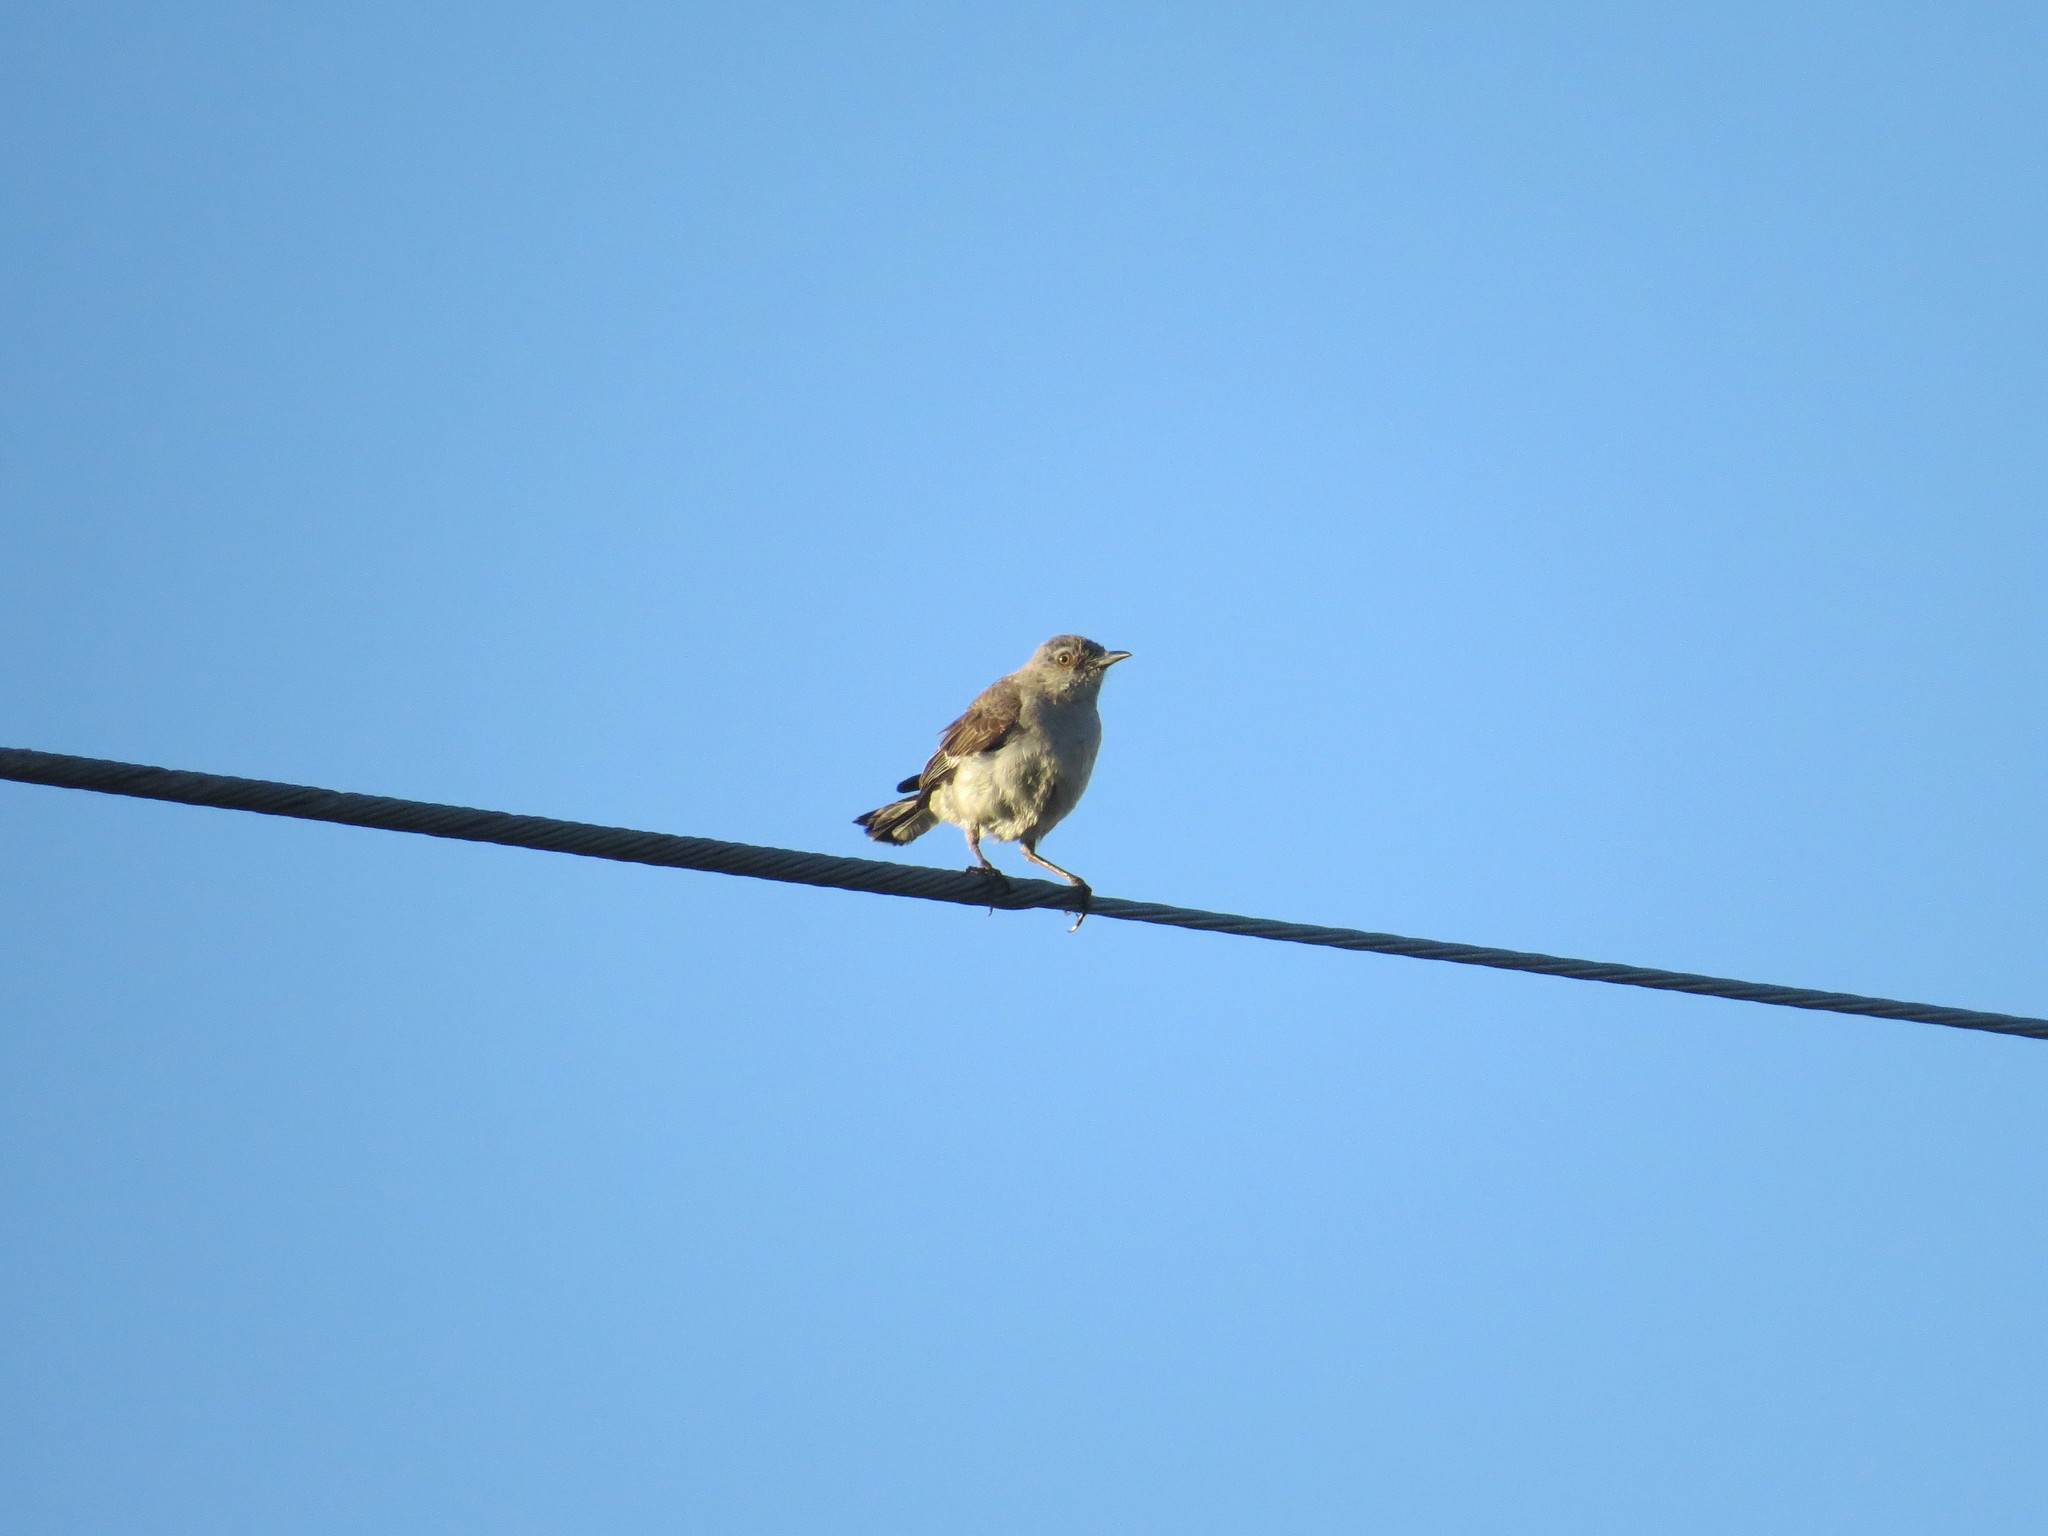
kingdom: Animalia
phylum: Chordata
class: Aves
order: Passeriformes
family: Mimidae
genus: Mimus
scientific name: Mimus polyglottos
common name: Northern mockingbird
